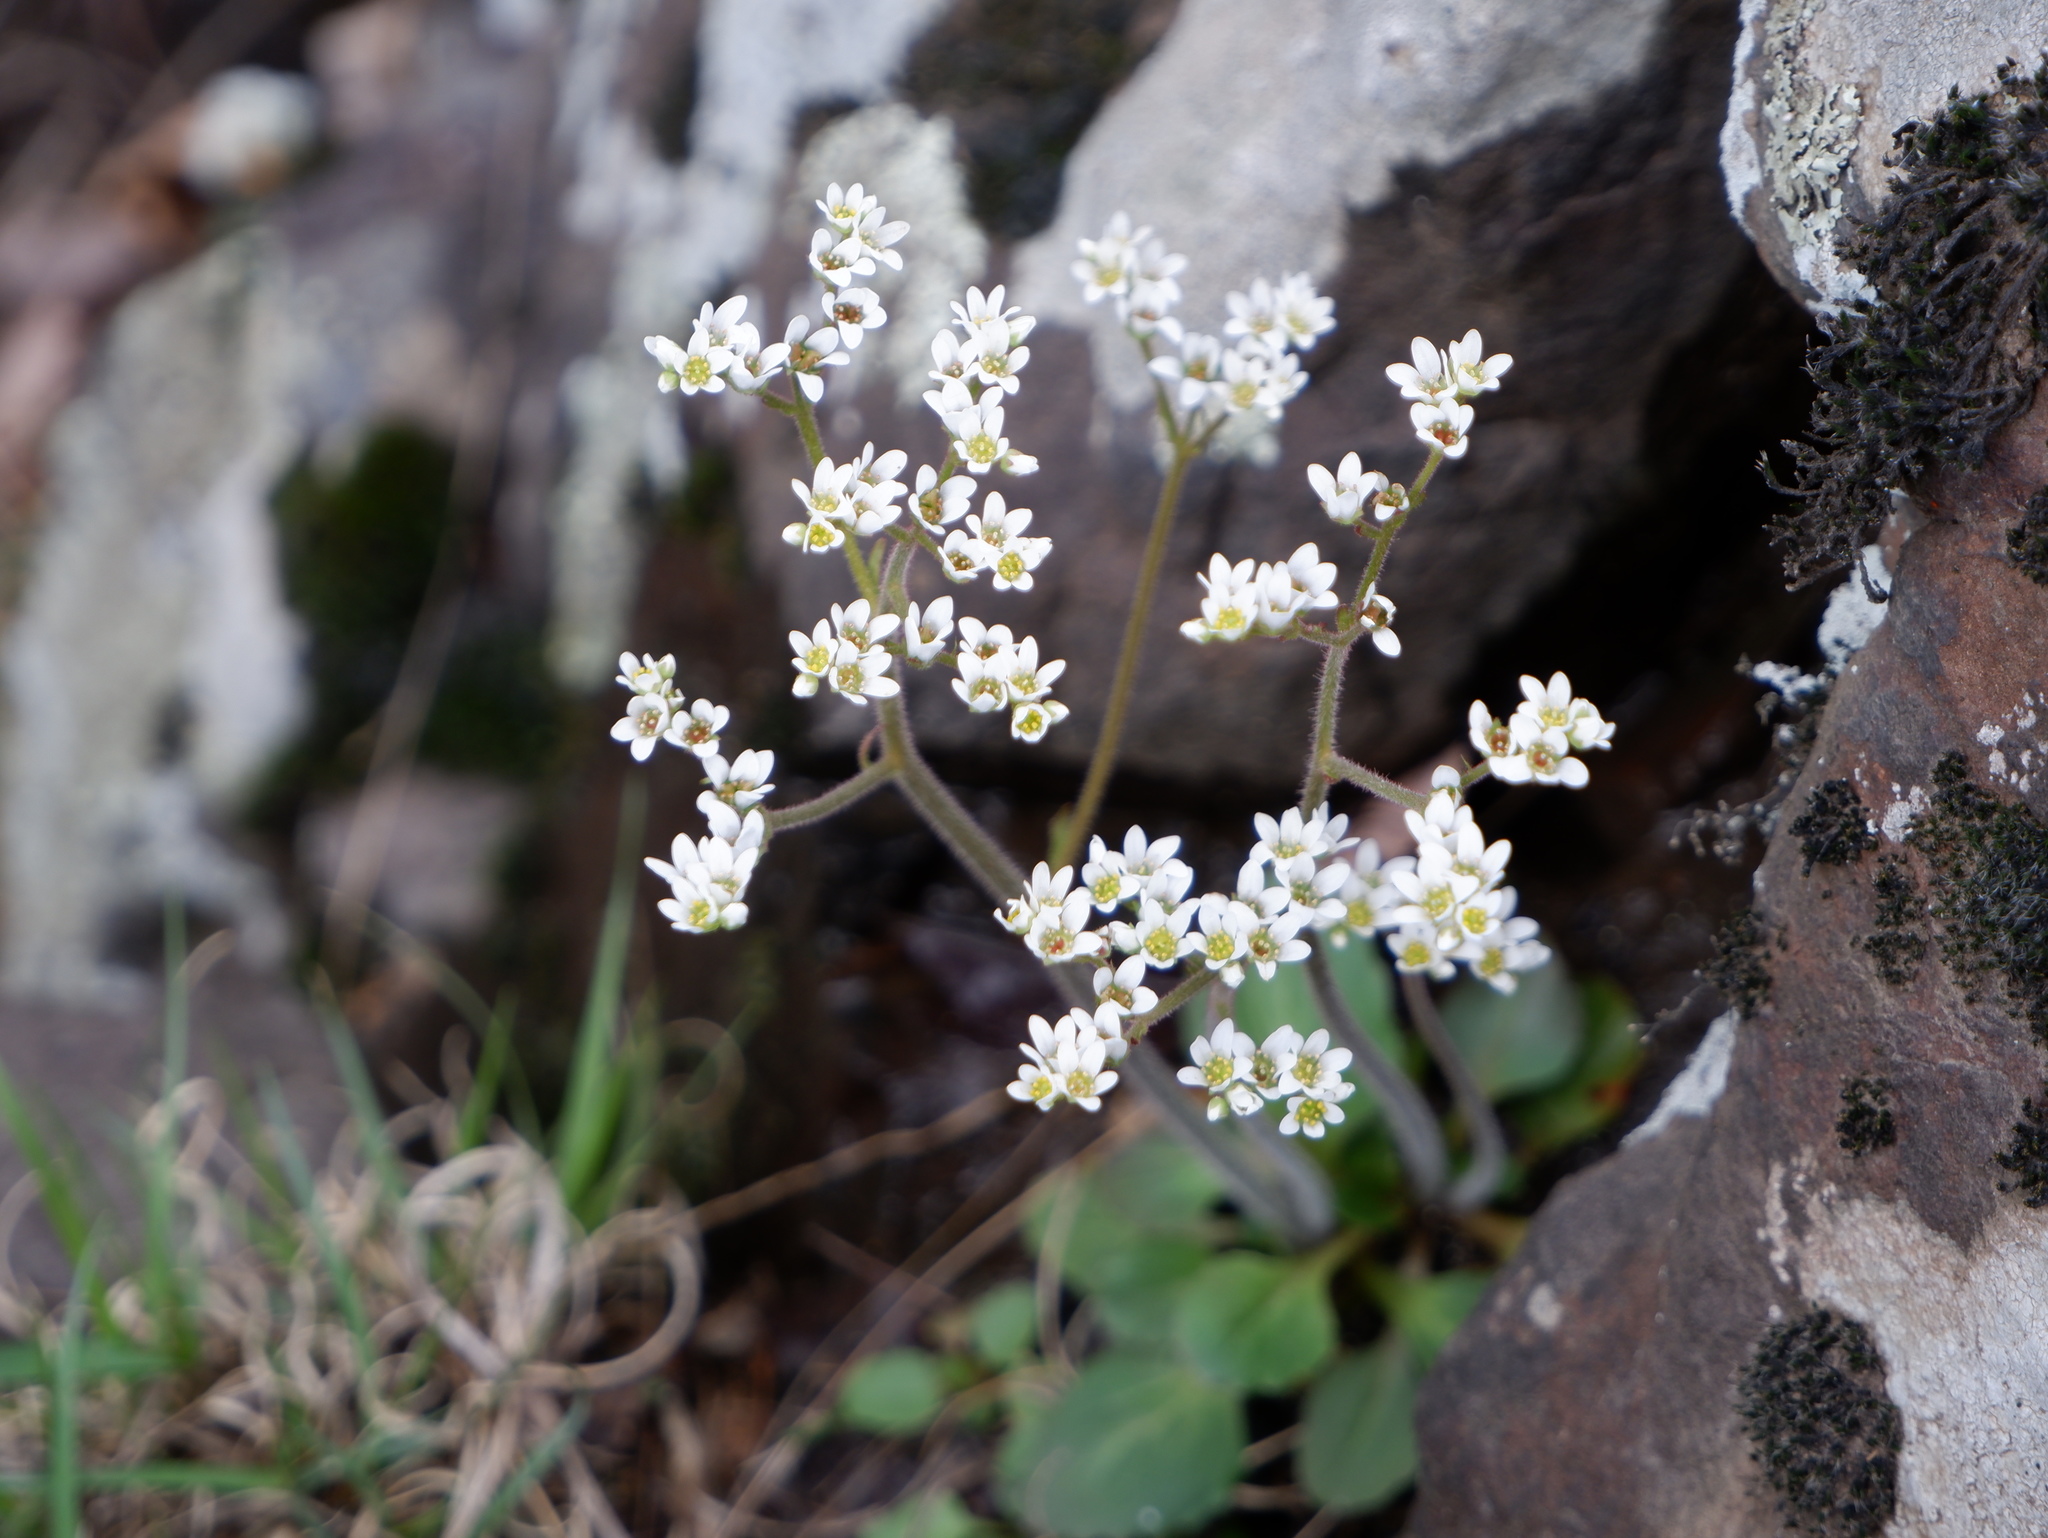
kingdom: Plantae
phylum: Tracheophyta
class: Magnoliopsida
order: Saxifragales
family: Saxifragaceae
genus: Micranthes
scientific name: Micranthes virginiensis
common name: Early saxifrage
